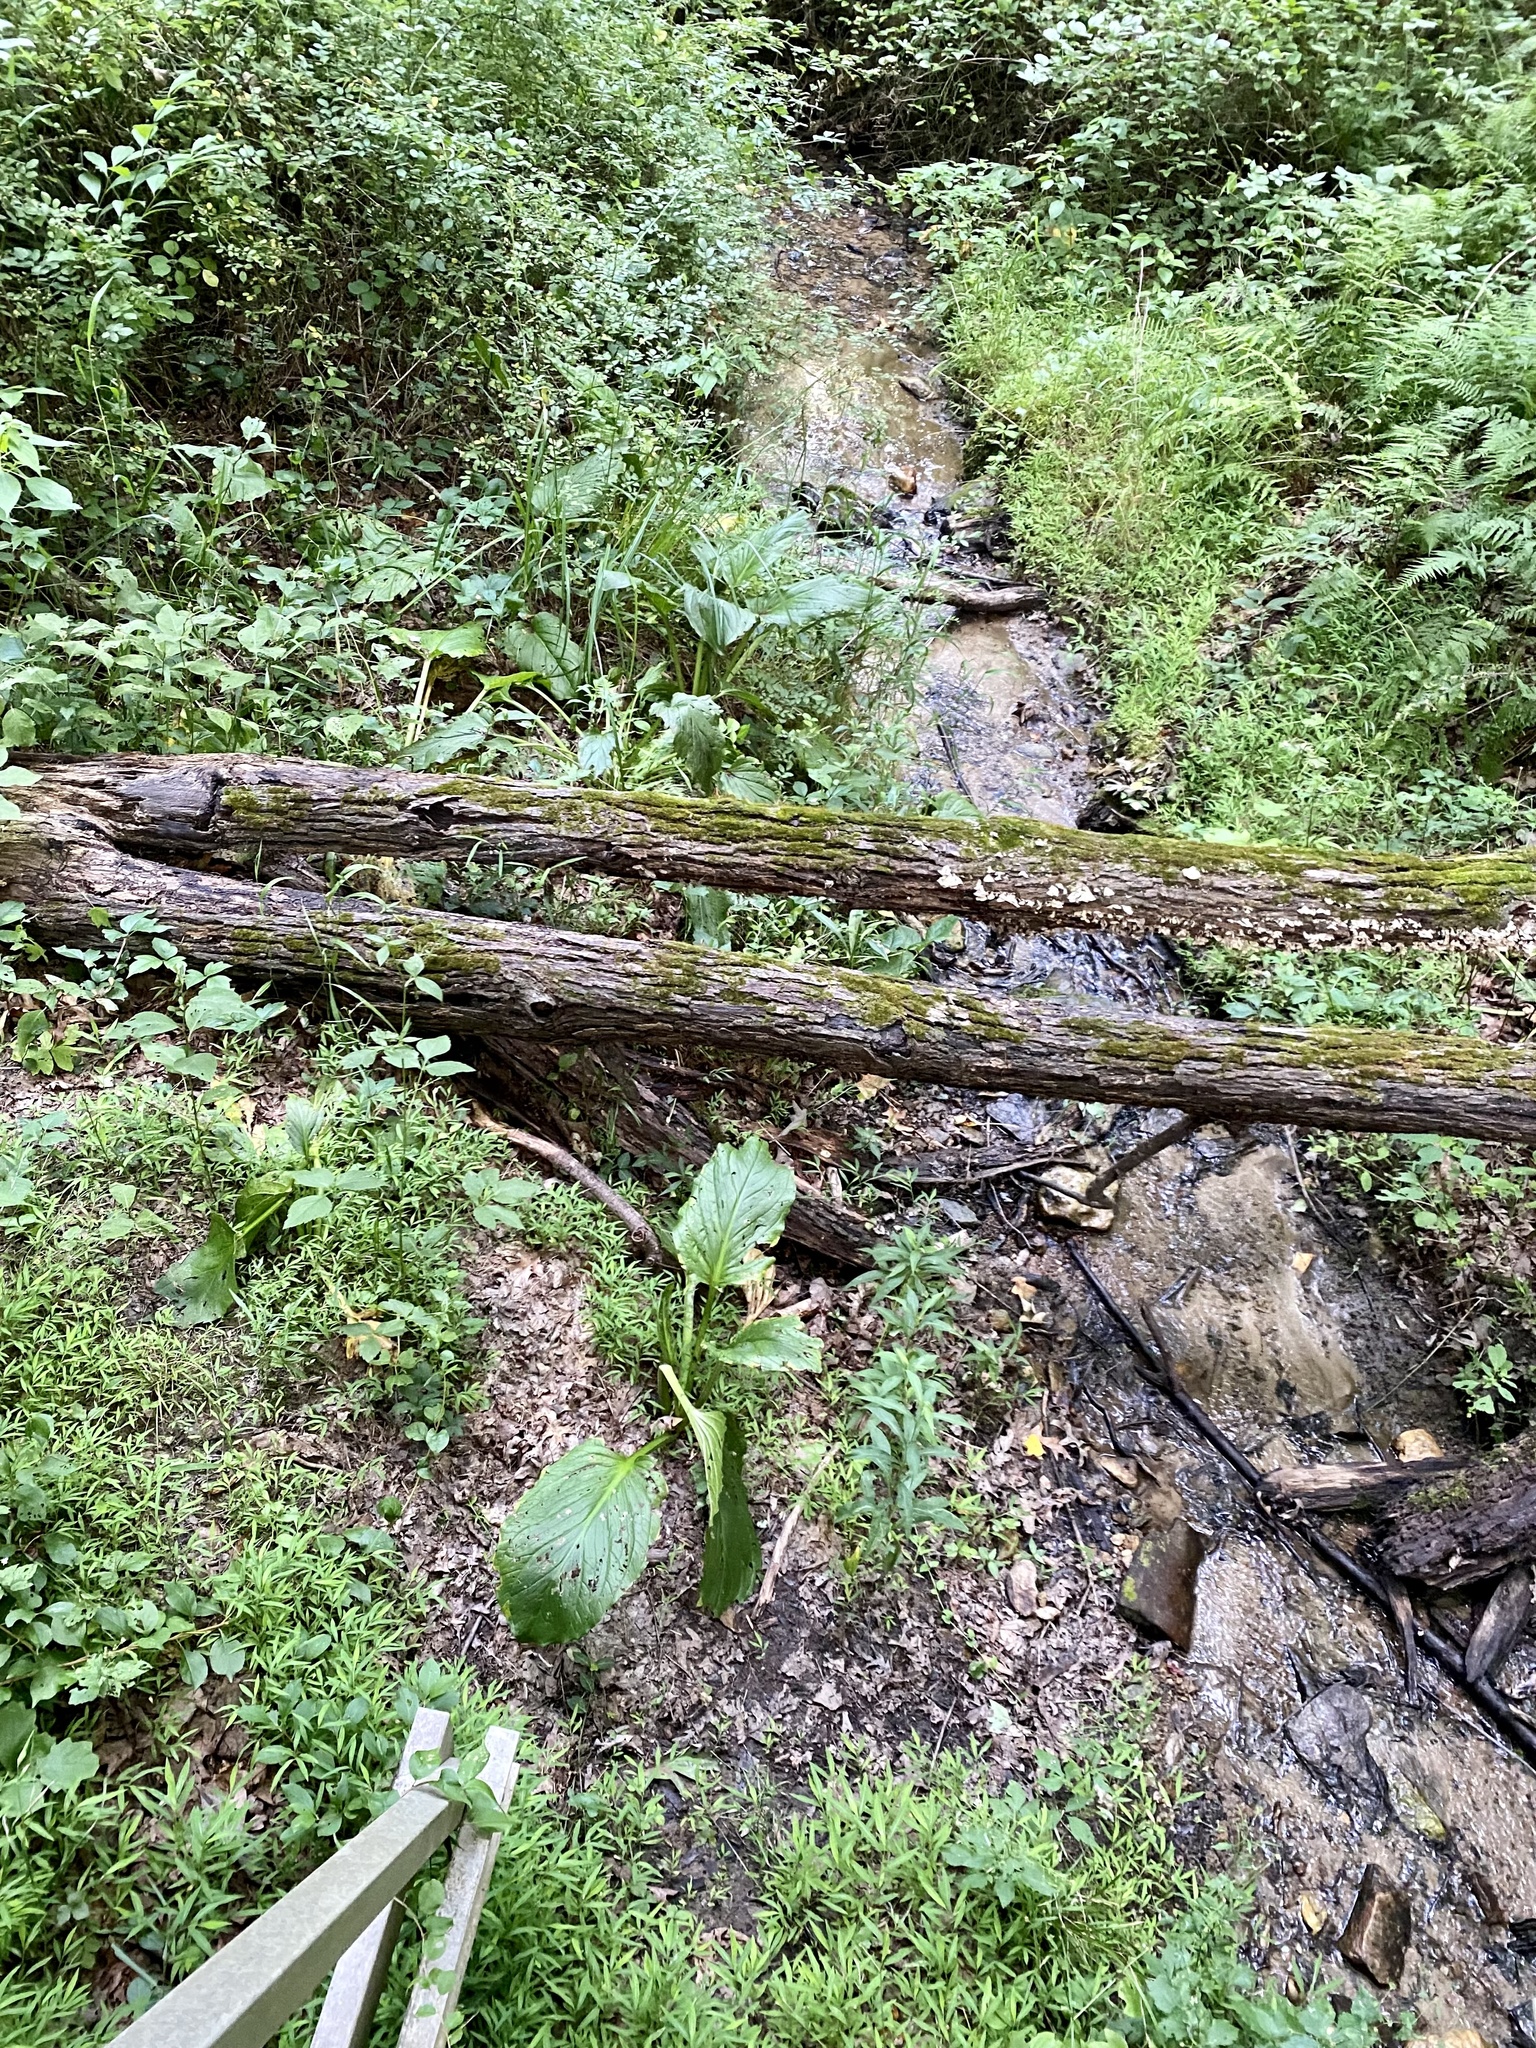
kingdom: Plantae
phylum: Tracheophyta
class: Liliopsida
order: Alismatales
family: Araceae
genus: Symplocarpus
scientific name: Symplocarpus foetidus
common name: Eastern skunk cabbage
